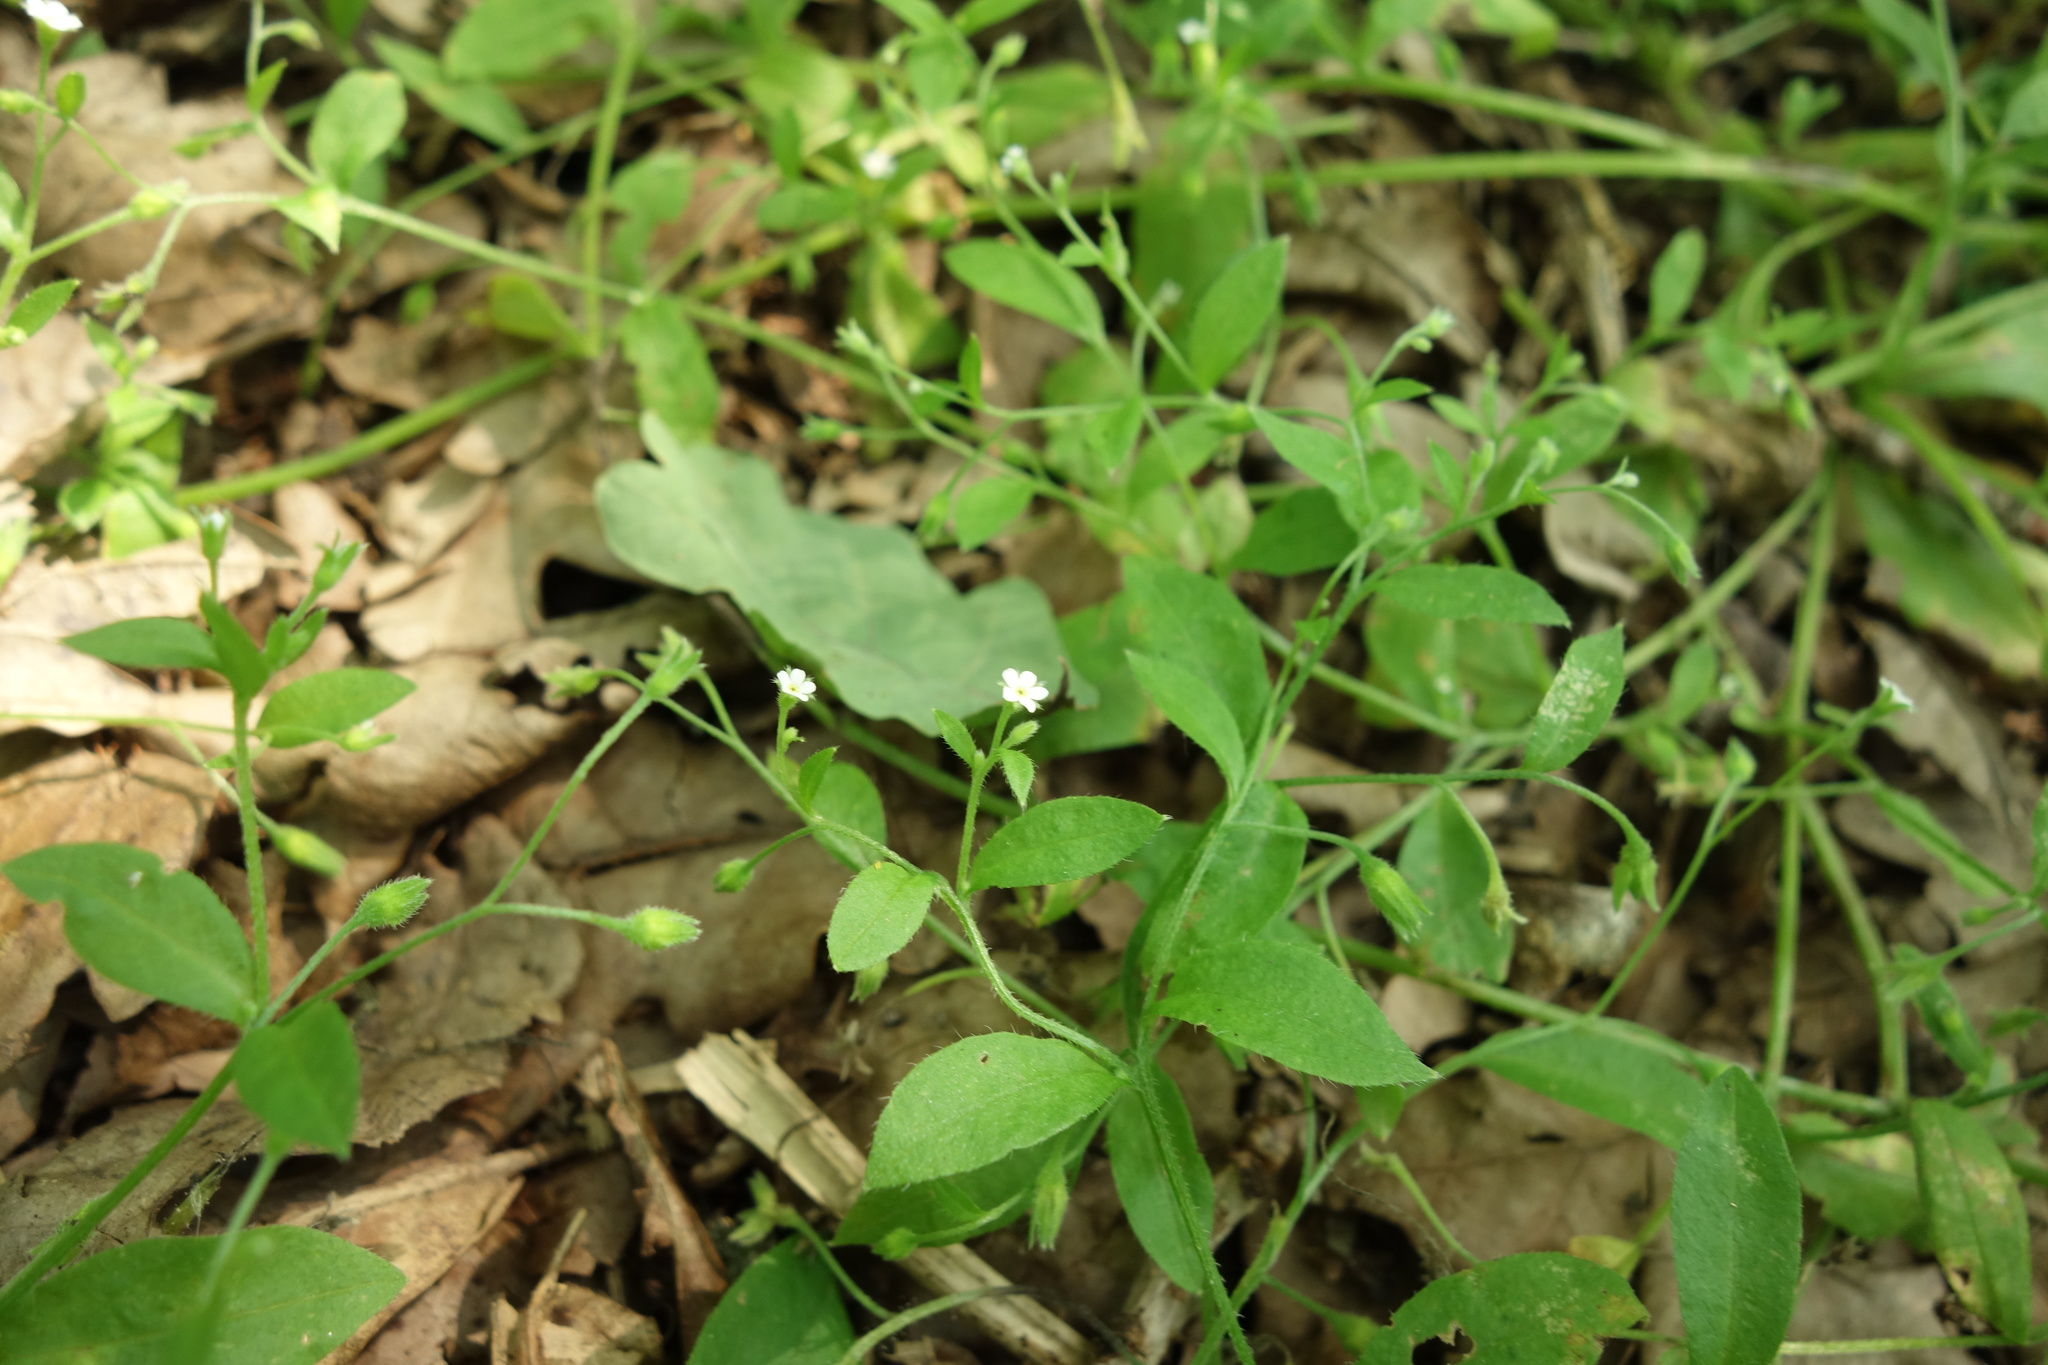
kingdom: Plantae
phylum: Tracheophyta
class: Magnoliopsida
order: Boraginales
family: Boraginaceae
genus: Myosotis
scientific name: Myosotis sparsiflora
